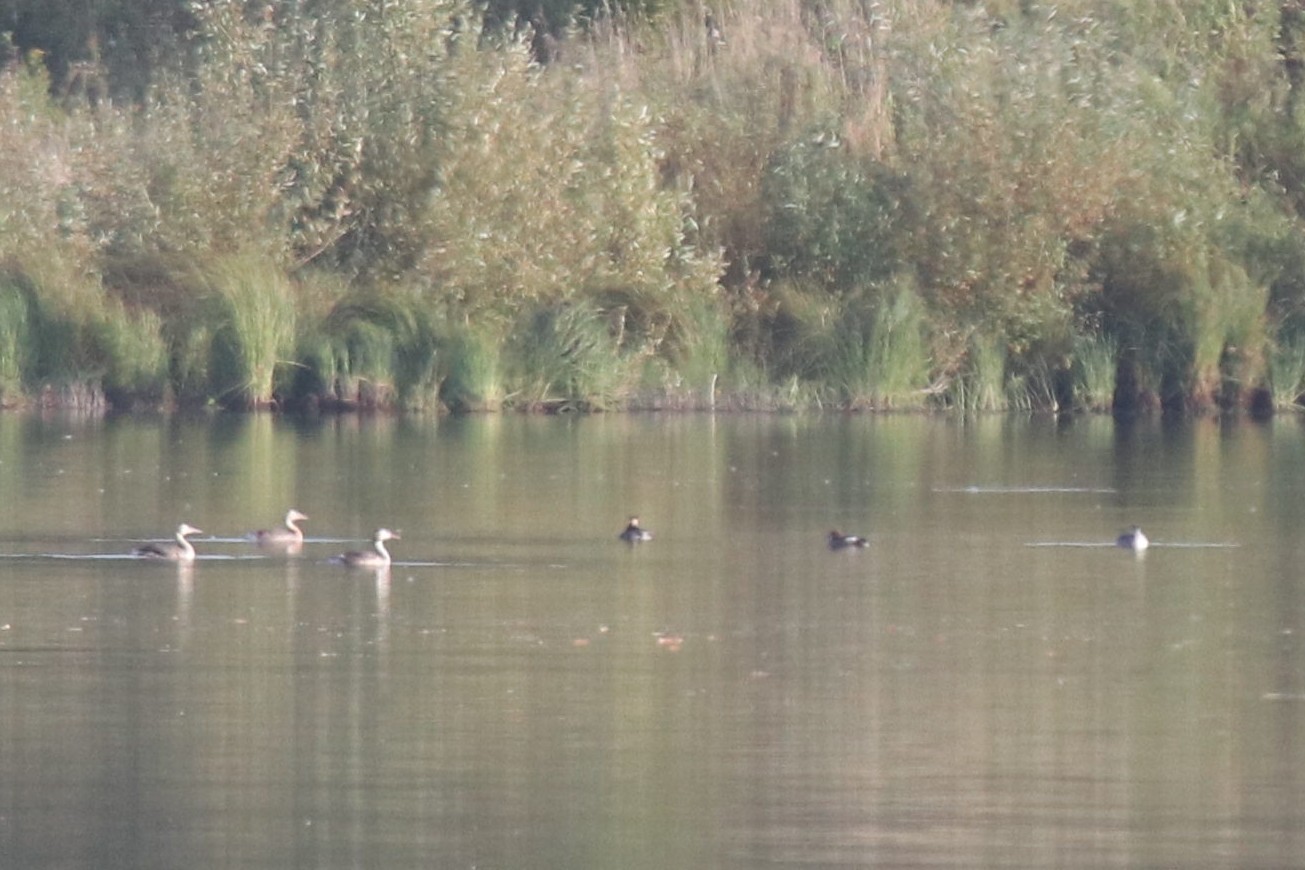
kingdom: Animalia
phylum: Chordata
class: Aves
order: Podicipediformes
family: Podicipedidae
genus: Podiceps
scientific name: Podiceps cristatus
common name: Great crested grebe
